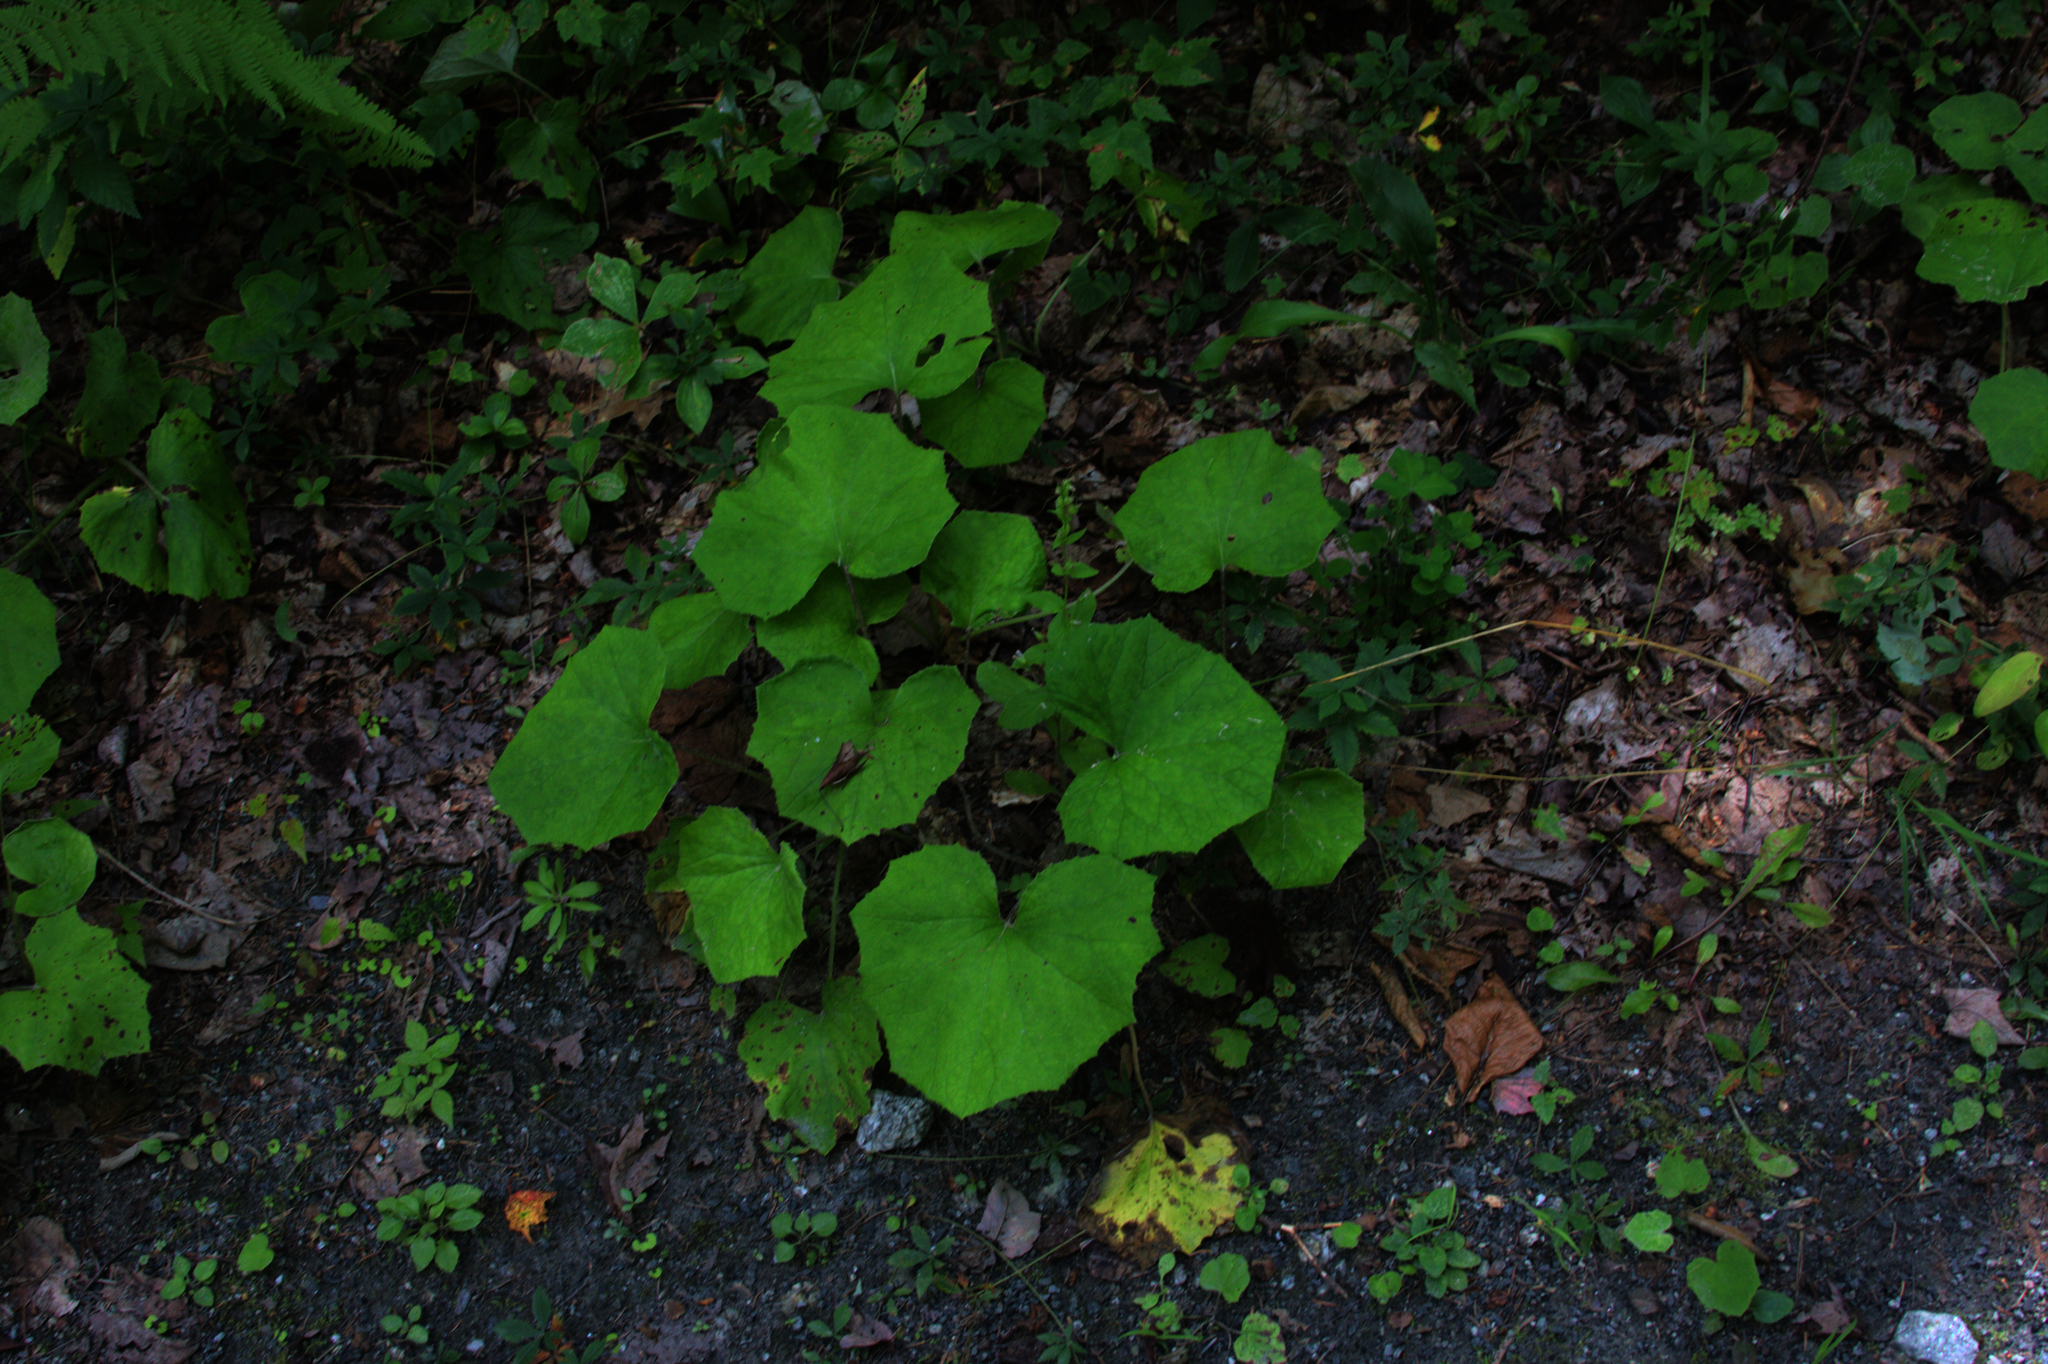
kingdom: Plantae
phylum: Tracheophyta
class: Magnoliopsida
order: Asterales
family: Asteraceae
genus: Tussilago
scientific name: Tussilago farfara
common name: Coltsfoot
